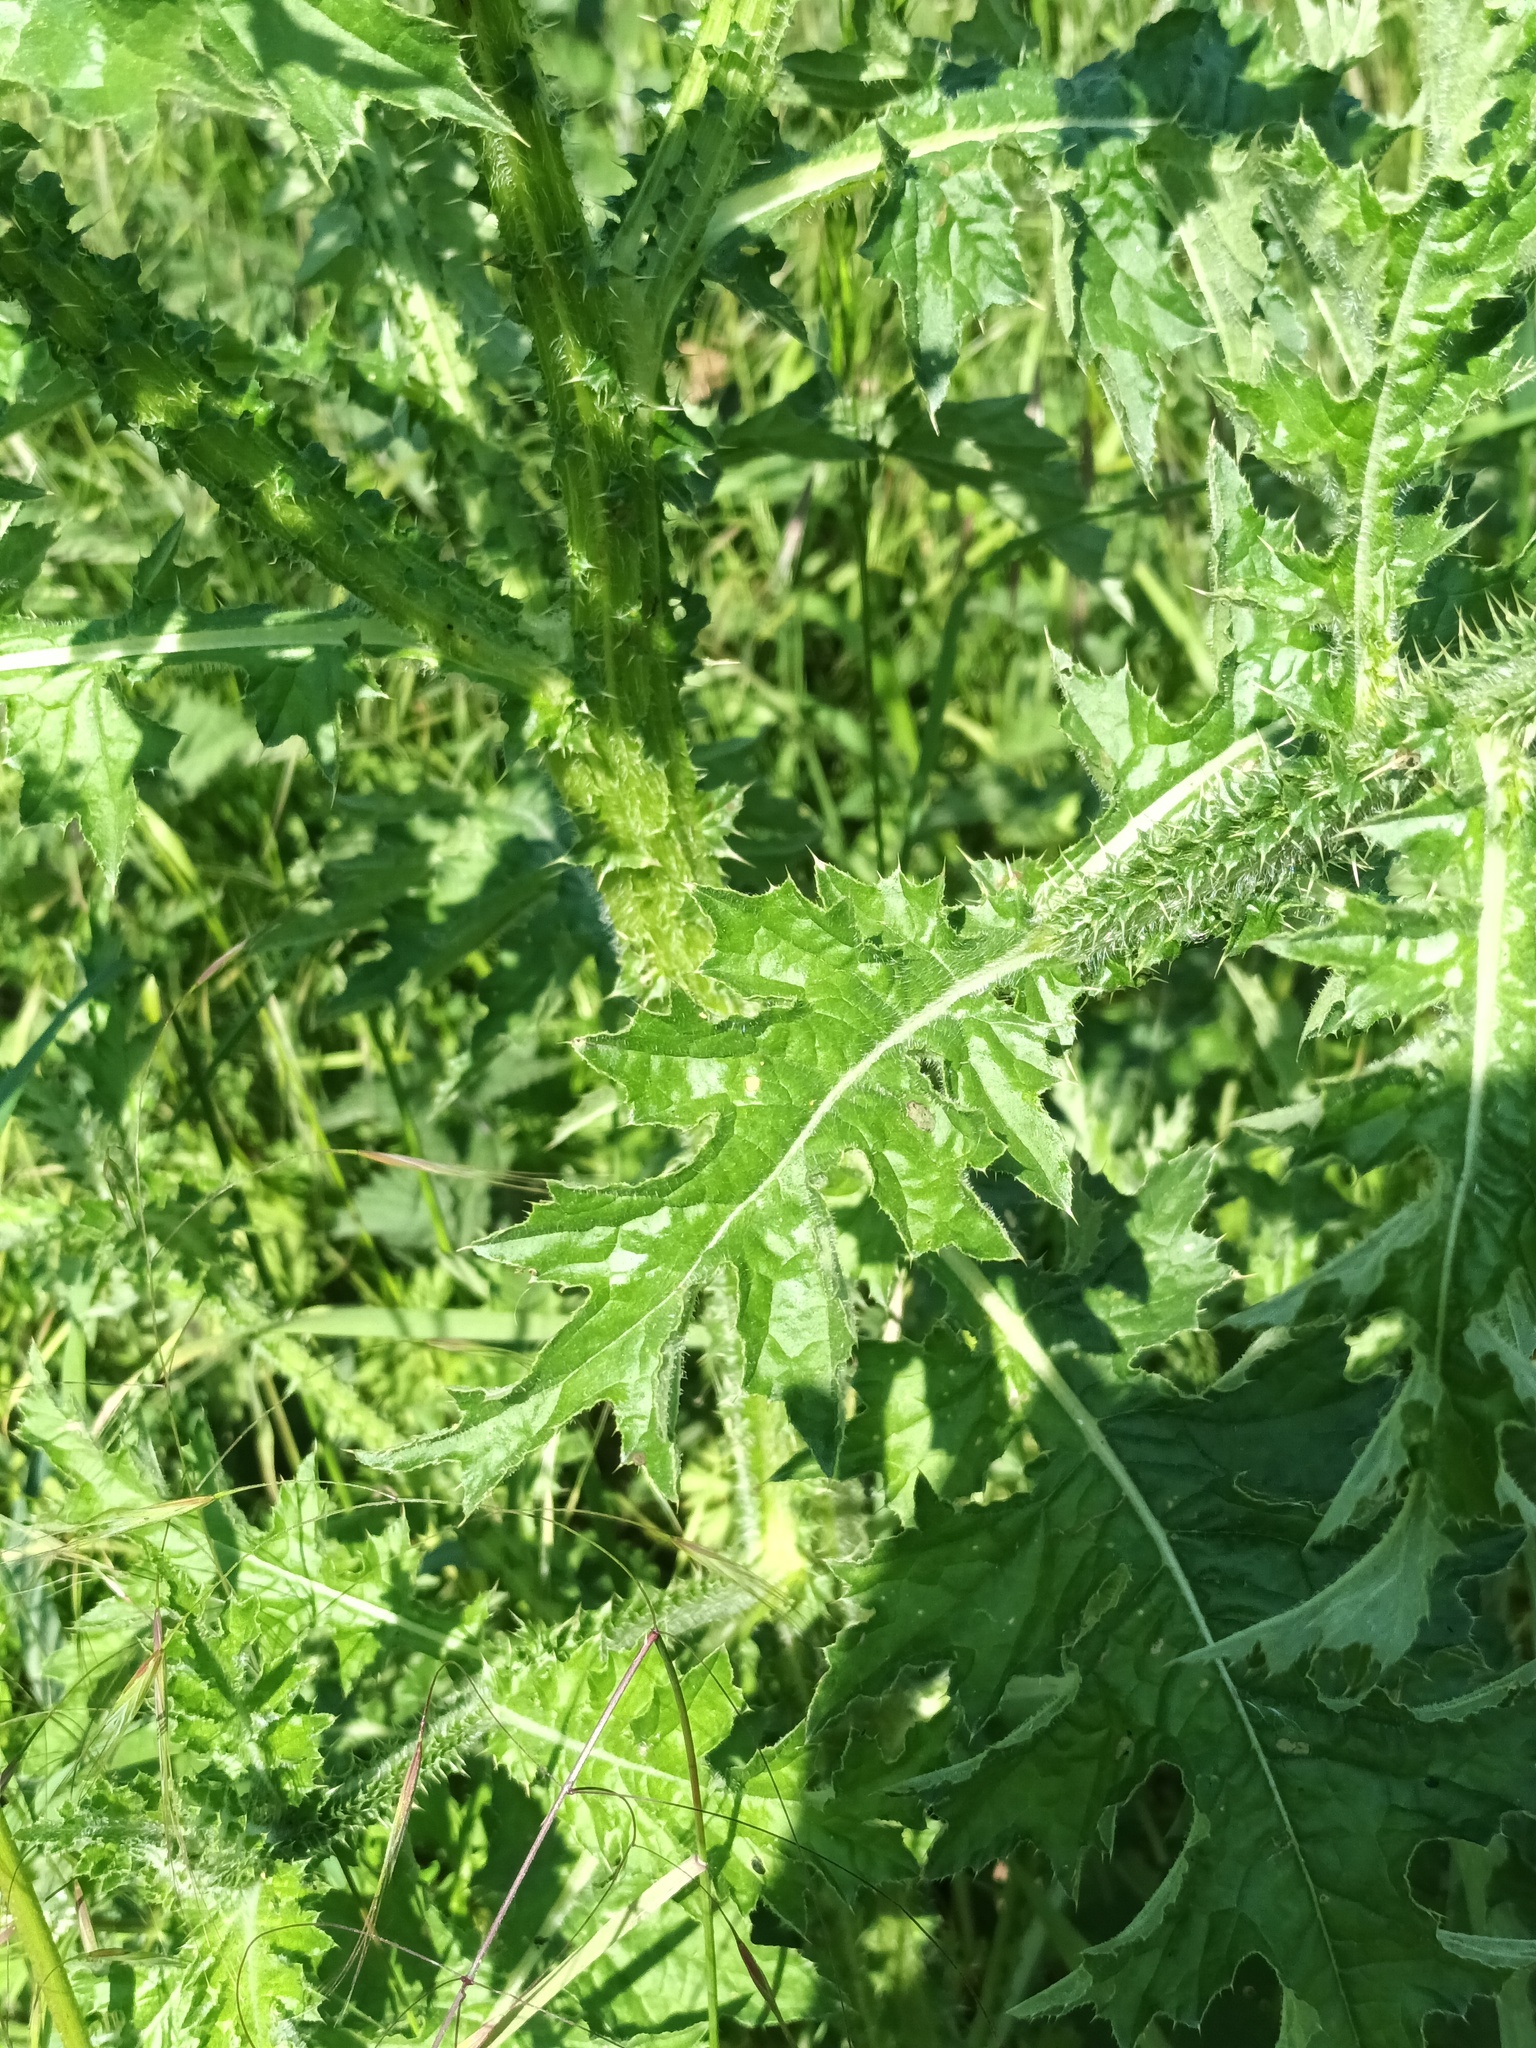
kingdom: Plantae
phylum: Tracheophyta
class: Magnoliopsida
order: Asterales
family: Asteraceae
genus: Carduus
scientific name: Carduus crispus
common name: Welted thistle
